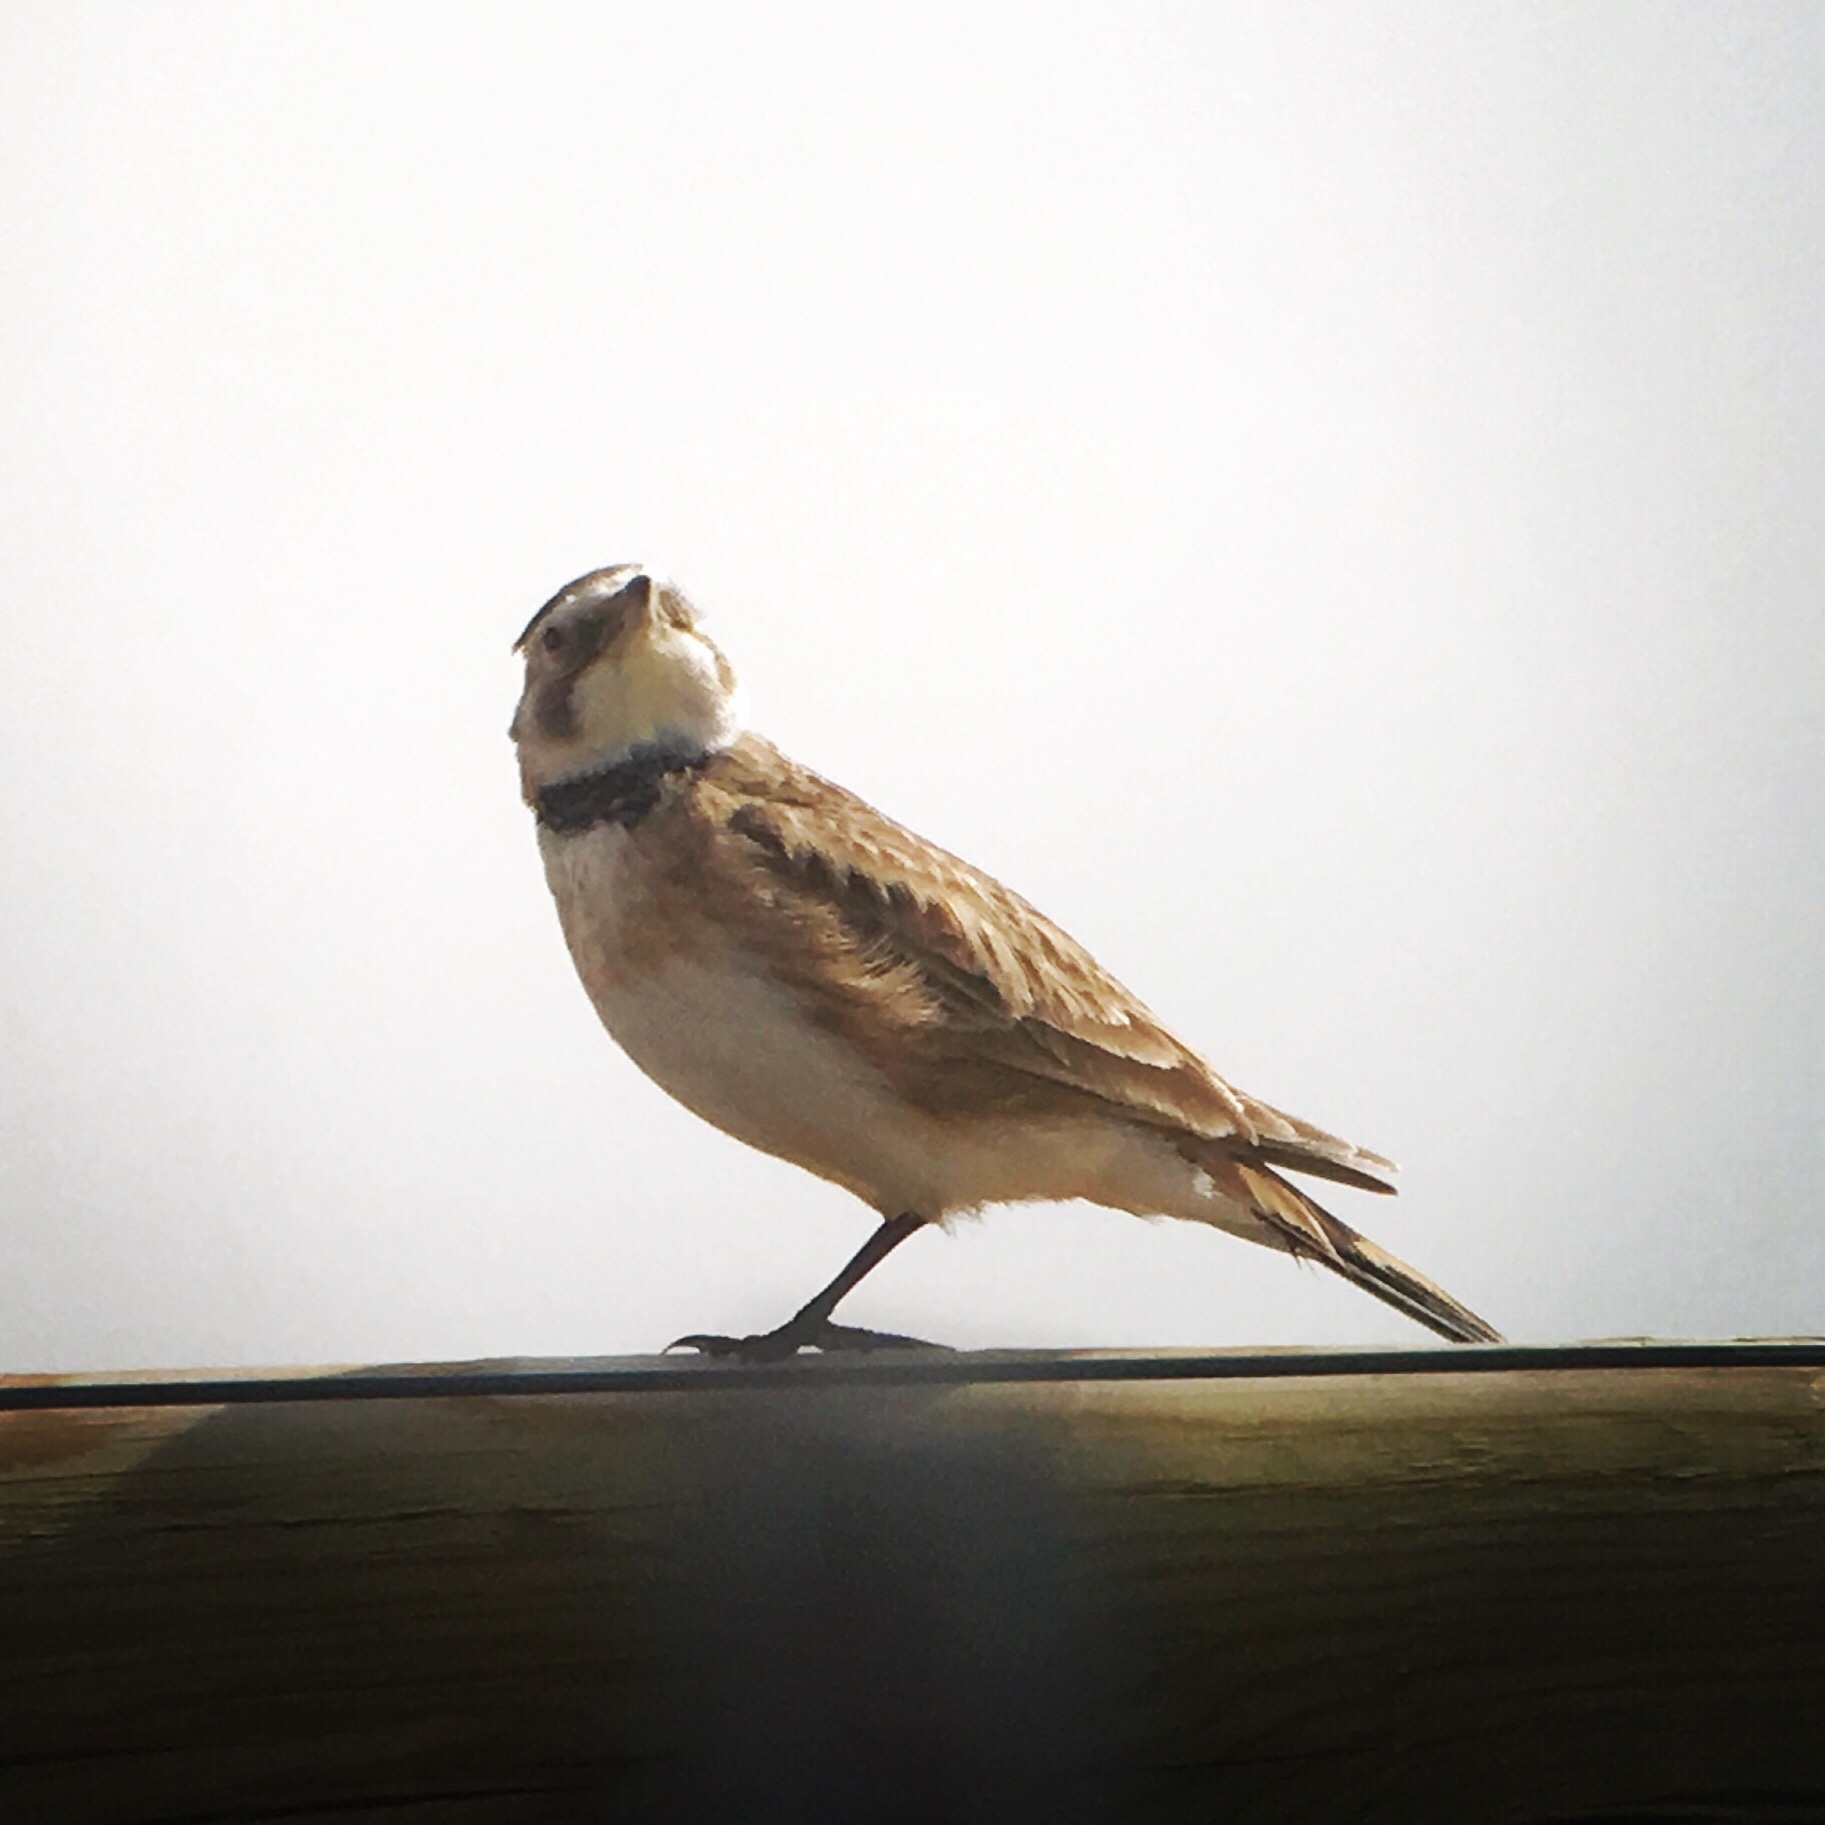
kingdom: Animalia
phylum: Chordata
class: Aves
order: Passeriformes
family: Alaudidae
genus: Eremophila
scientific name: Eremophila alpestris
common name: Horned lark
